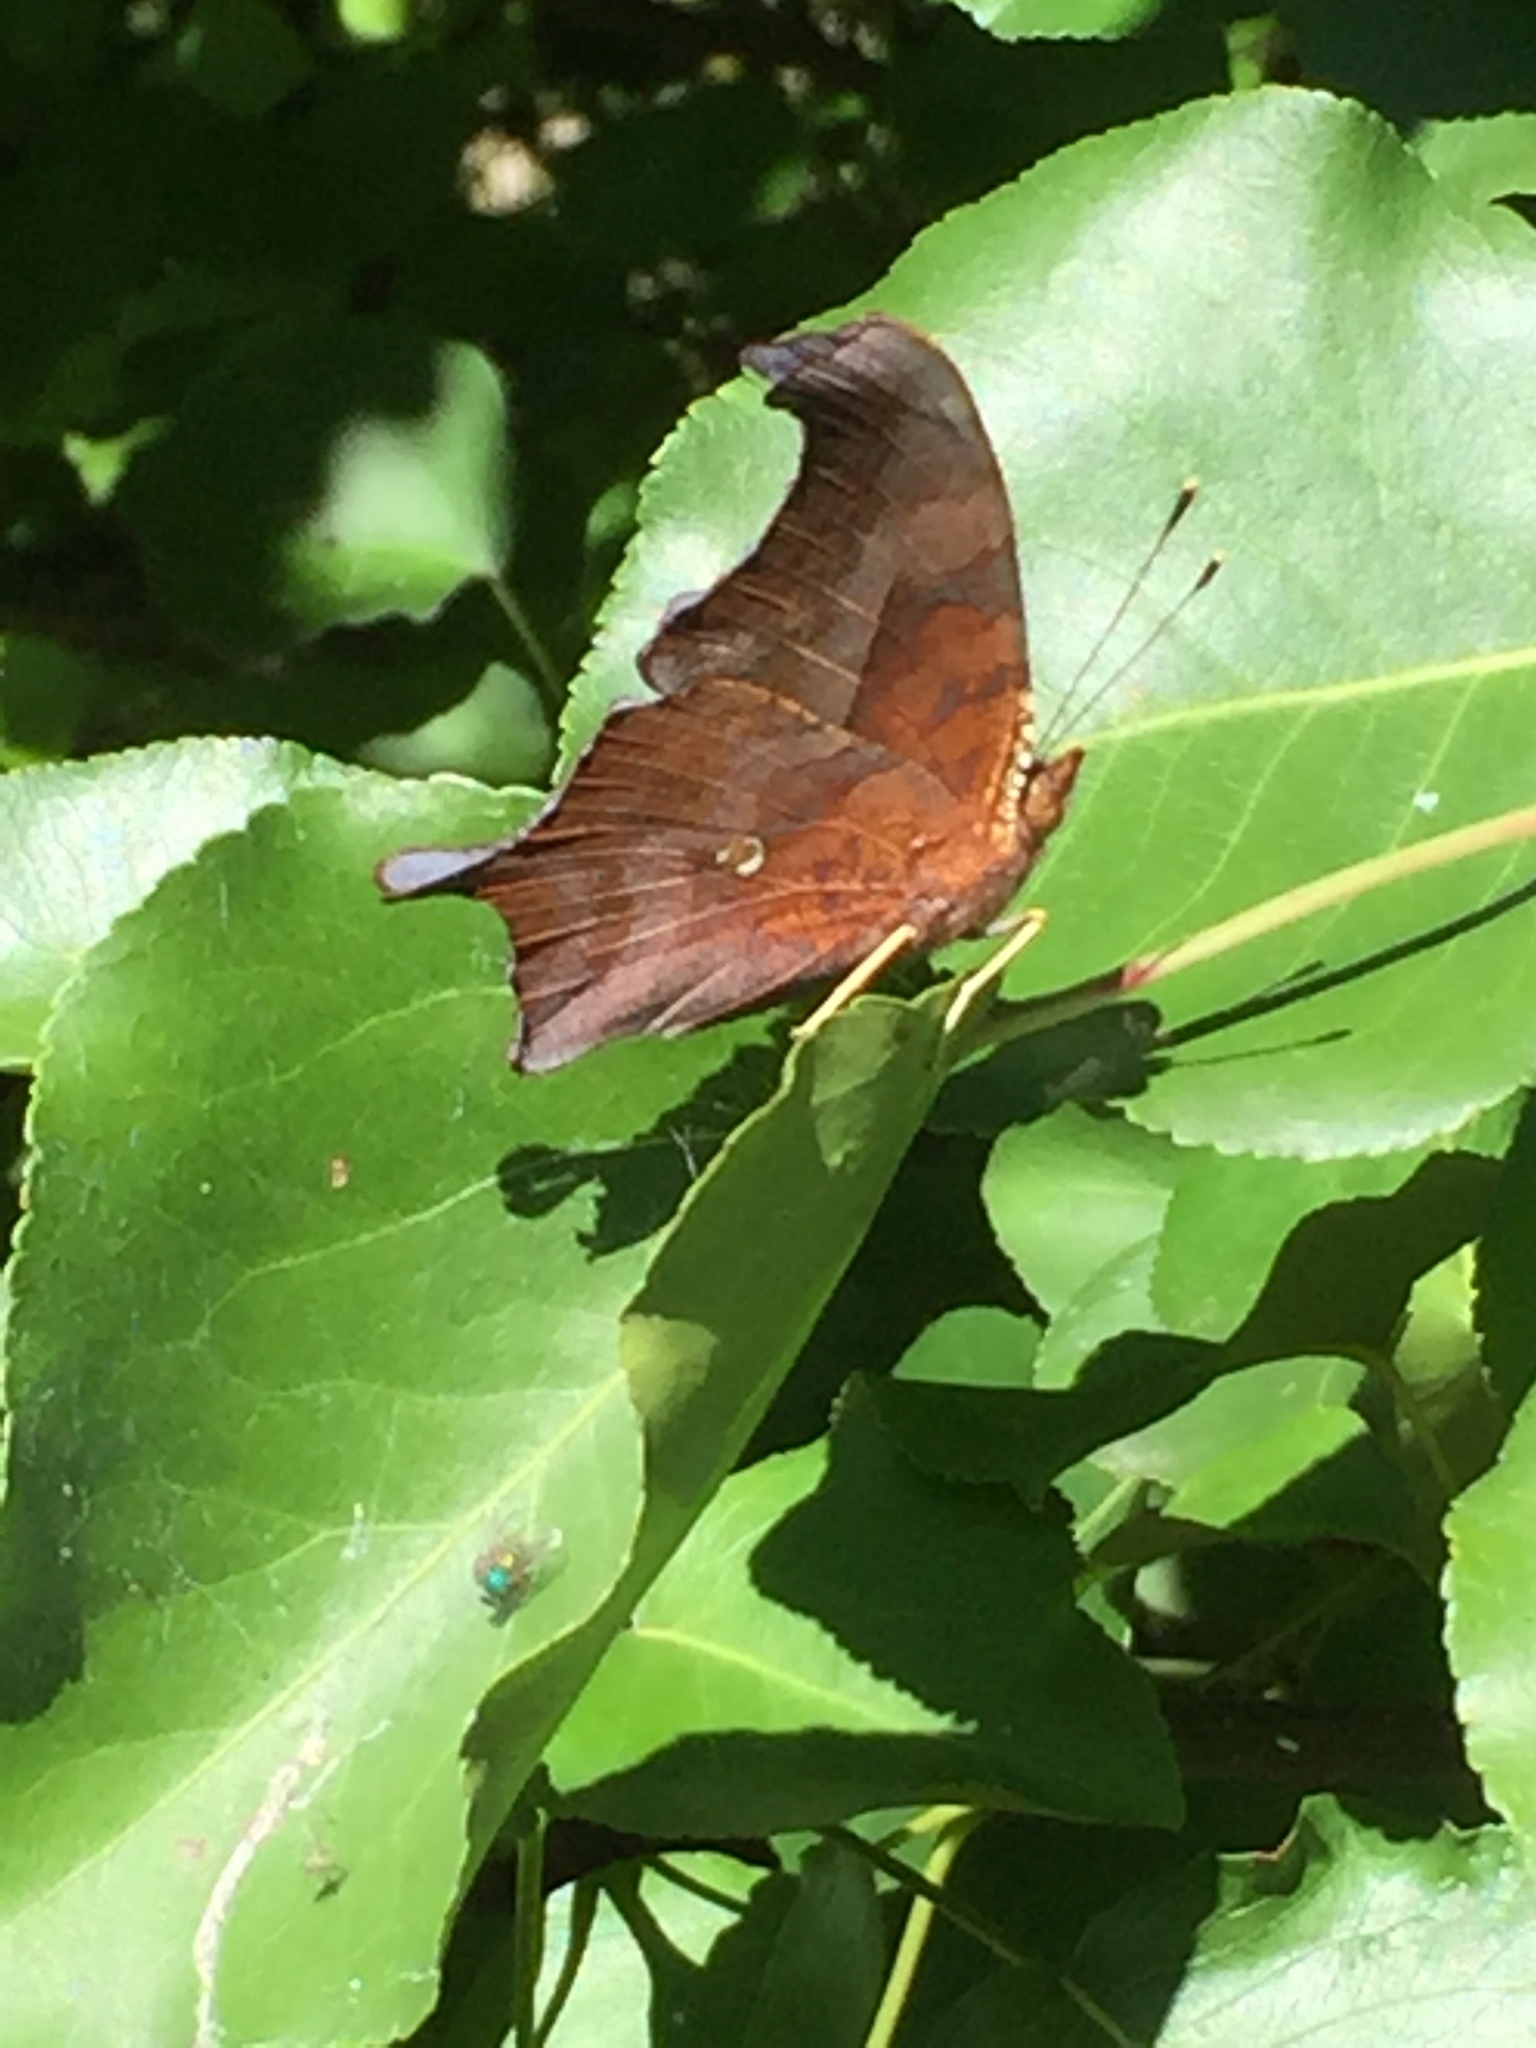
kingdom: Animalia
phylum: Arthropoda
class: Insecta
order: Lepidoptera
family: Nymphalidae
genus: Polygonia
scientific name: Polygonia interrogationis
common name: Question mark
